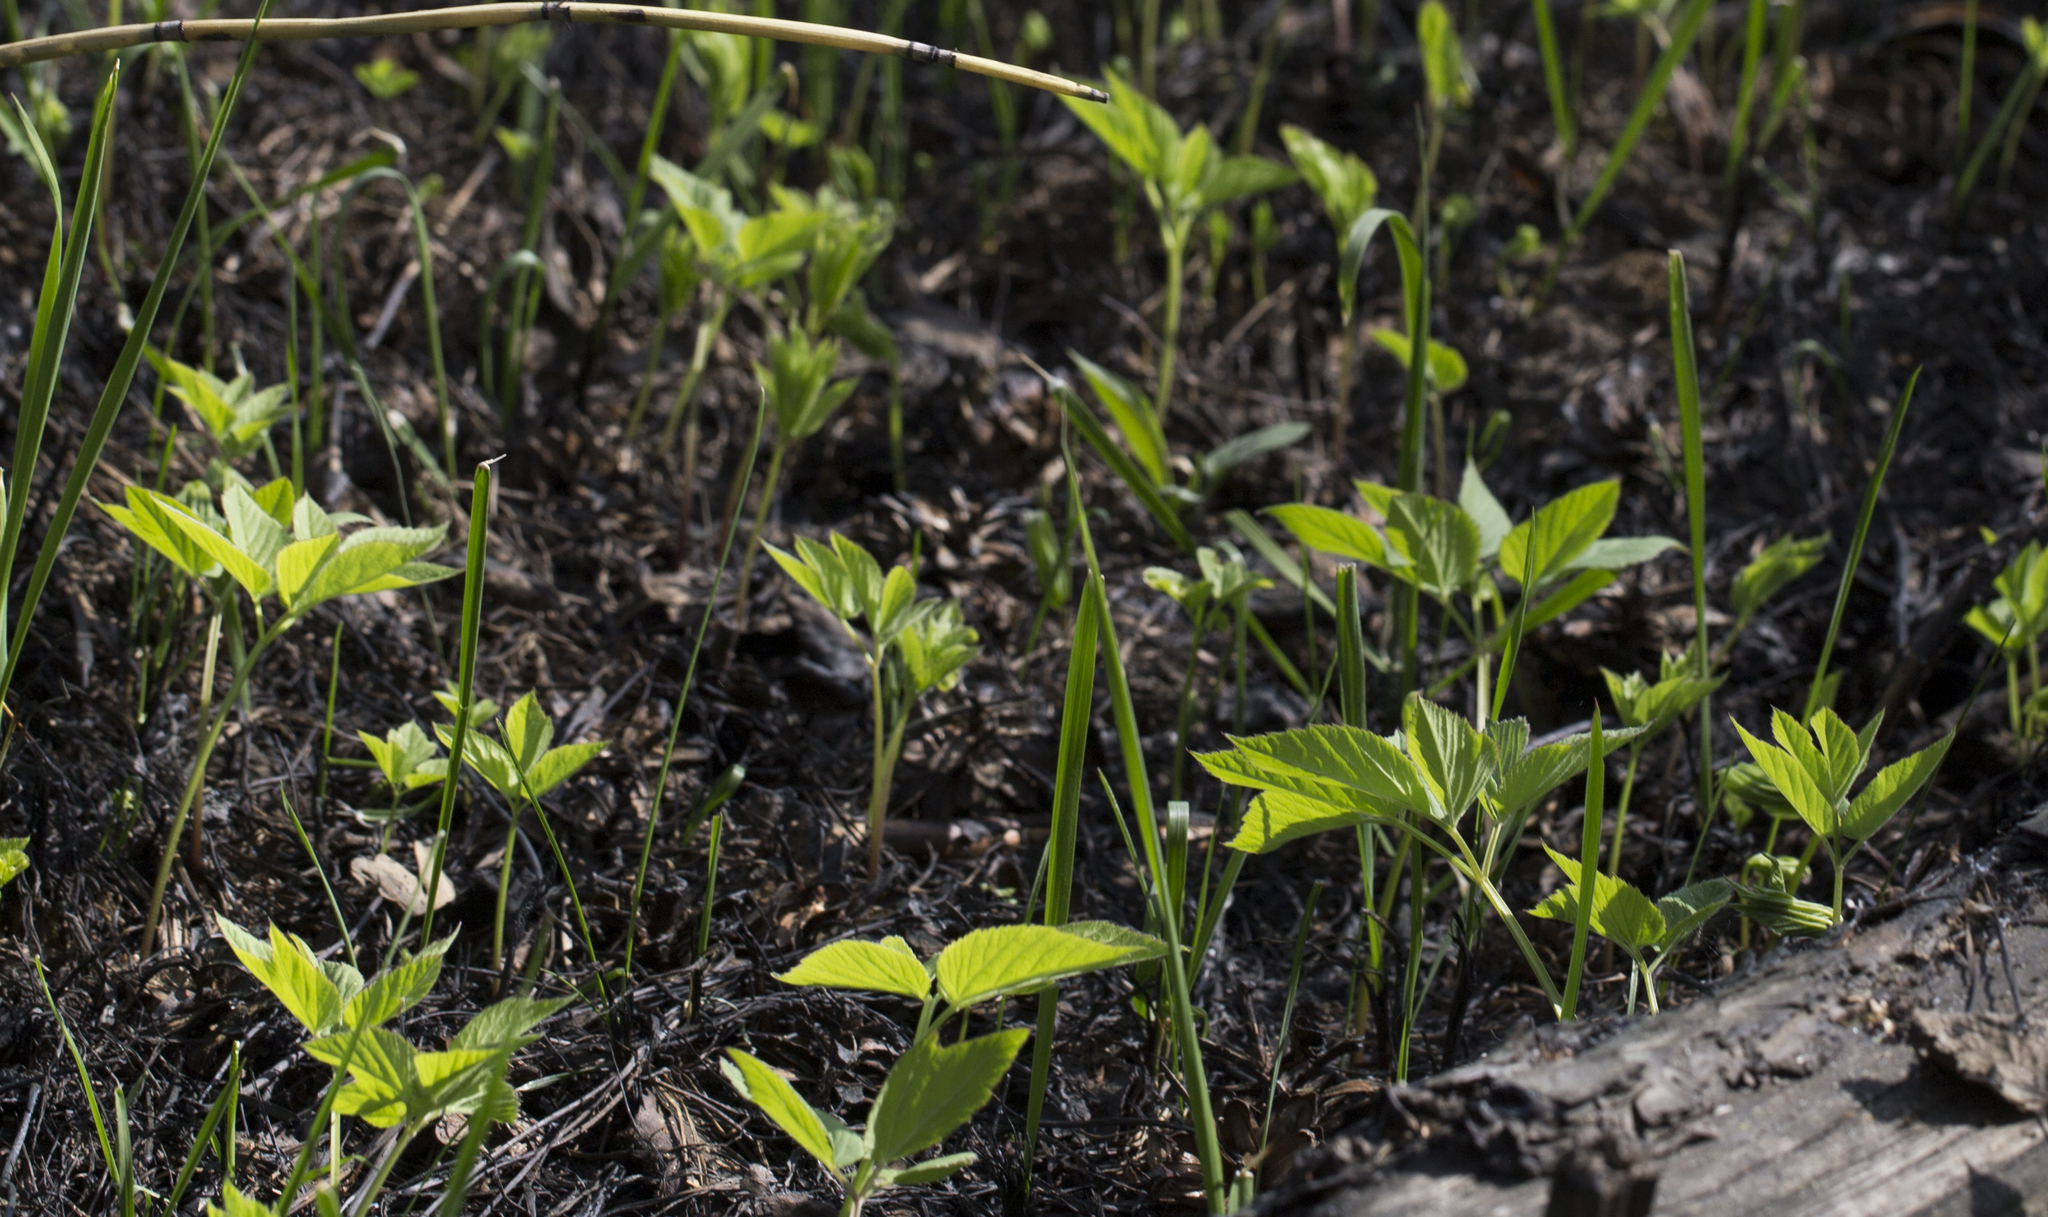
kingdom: Plantae
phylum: Tracheophyta
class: Magnoliopsida
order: Apiales
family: Apiaceae
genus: Aegopodium
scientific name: Aegopodium podagraria
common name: Ground-elder
